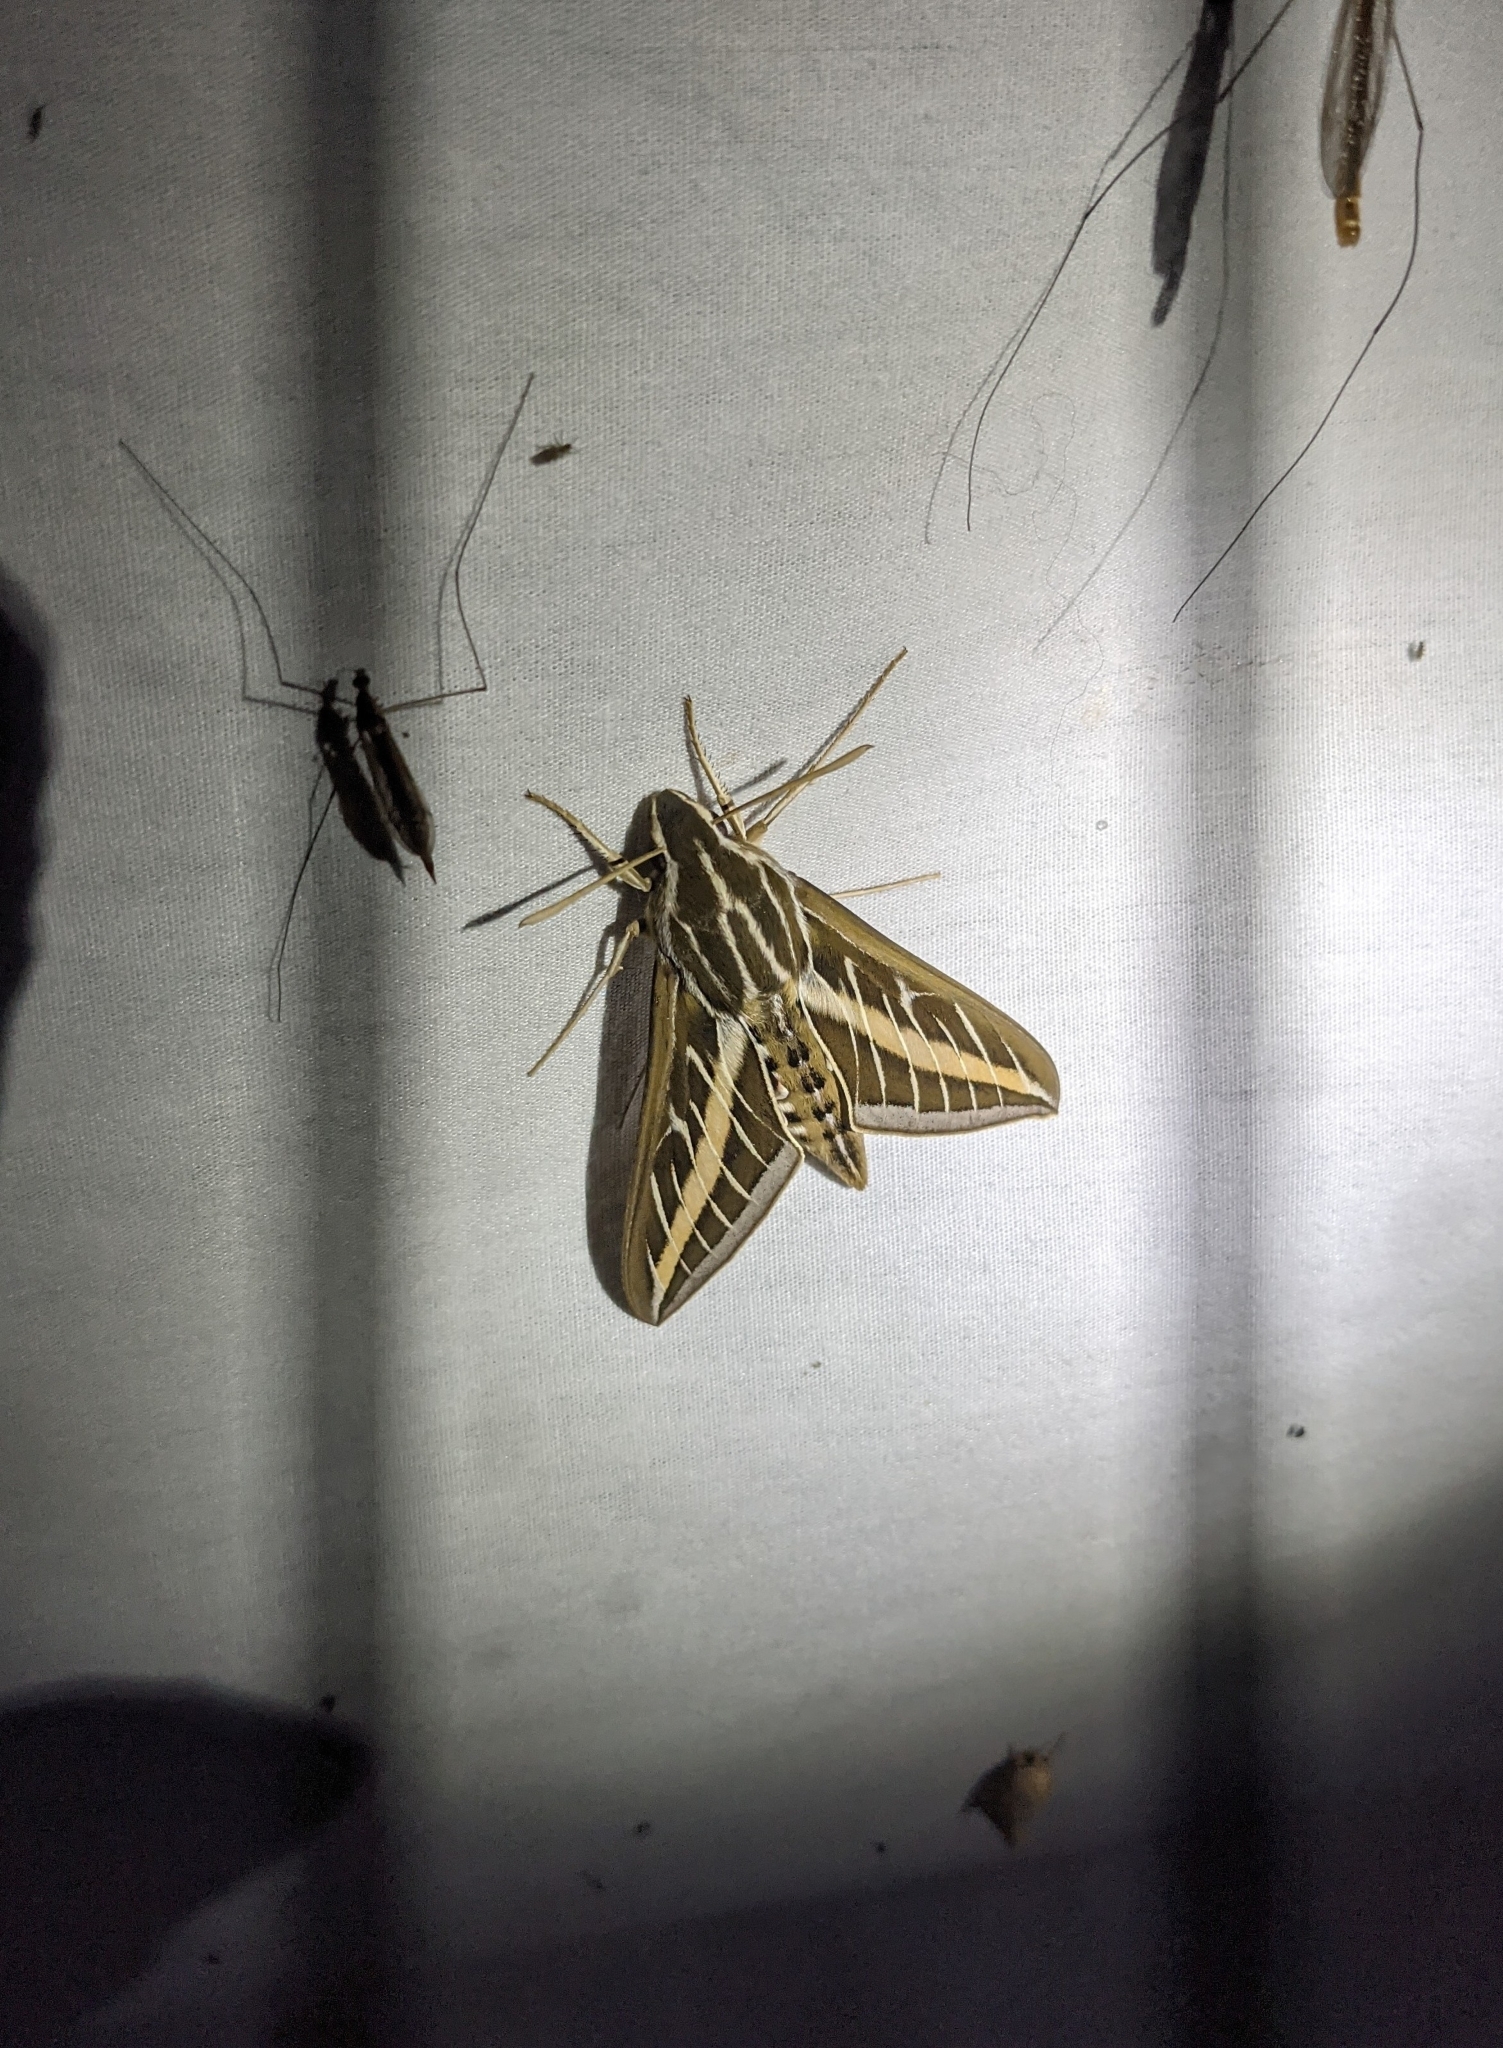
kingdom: Animalia
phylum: Arthropoda
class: Insecta
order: Lepidoptera
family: Sphingidae
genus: Hyles
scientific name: Hyles lineata
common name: White-lined sphinx
